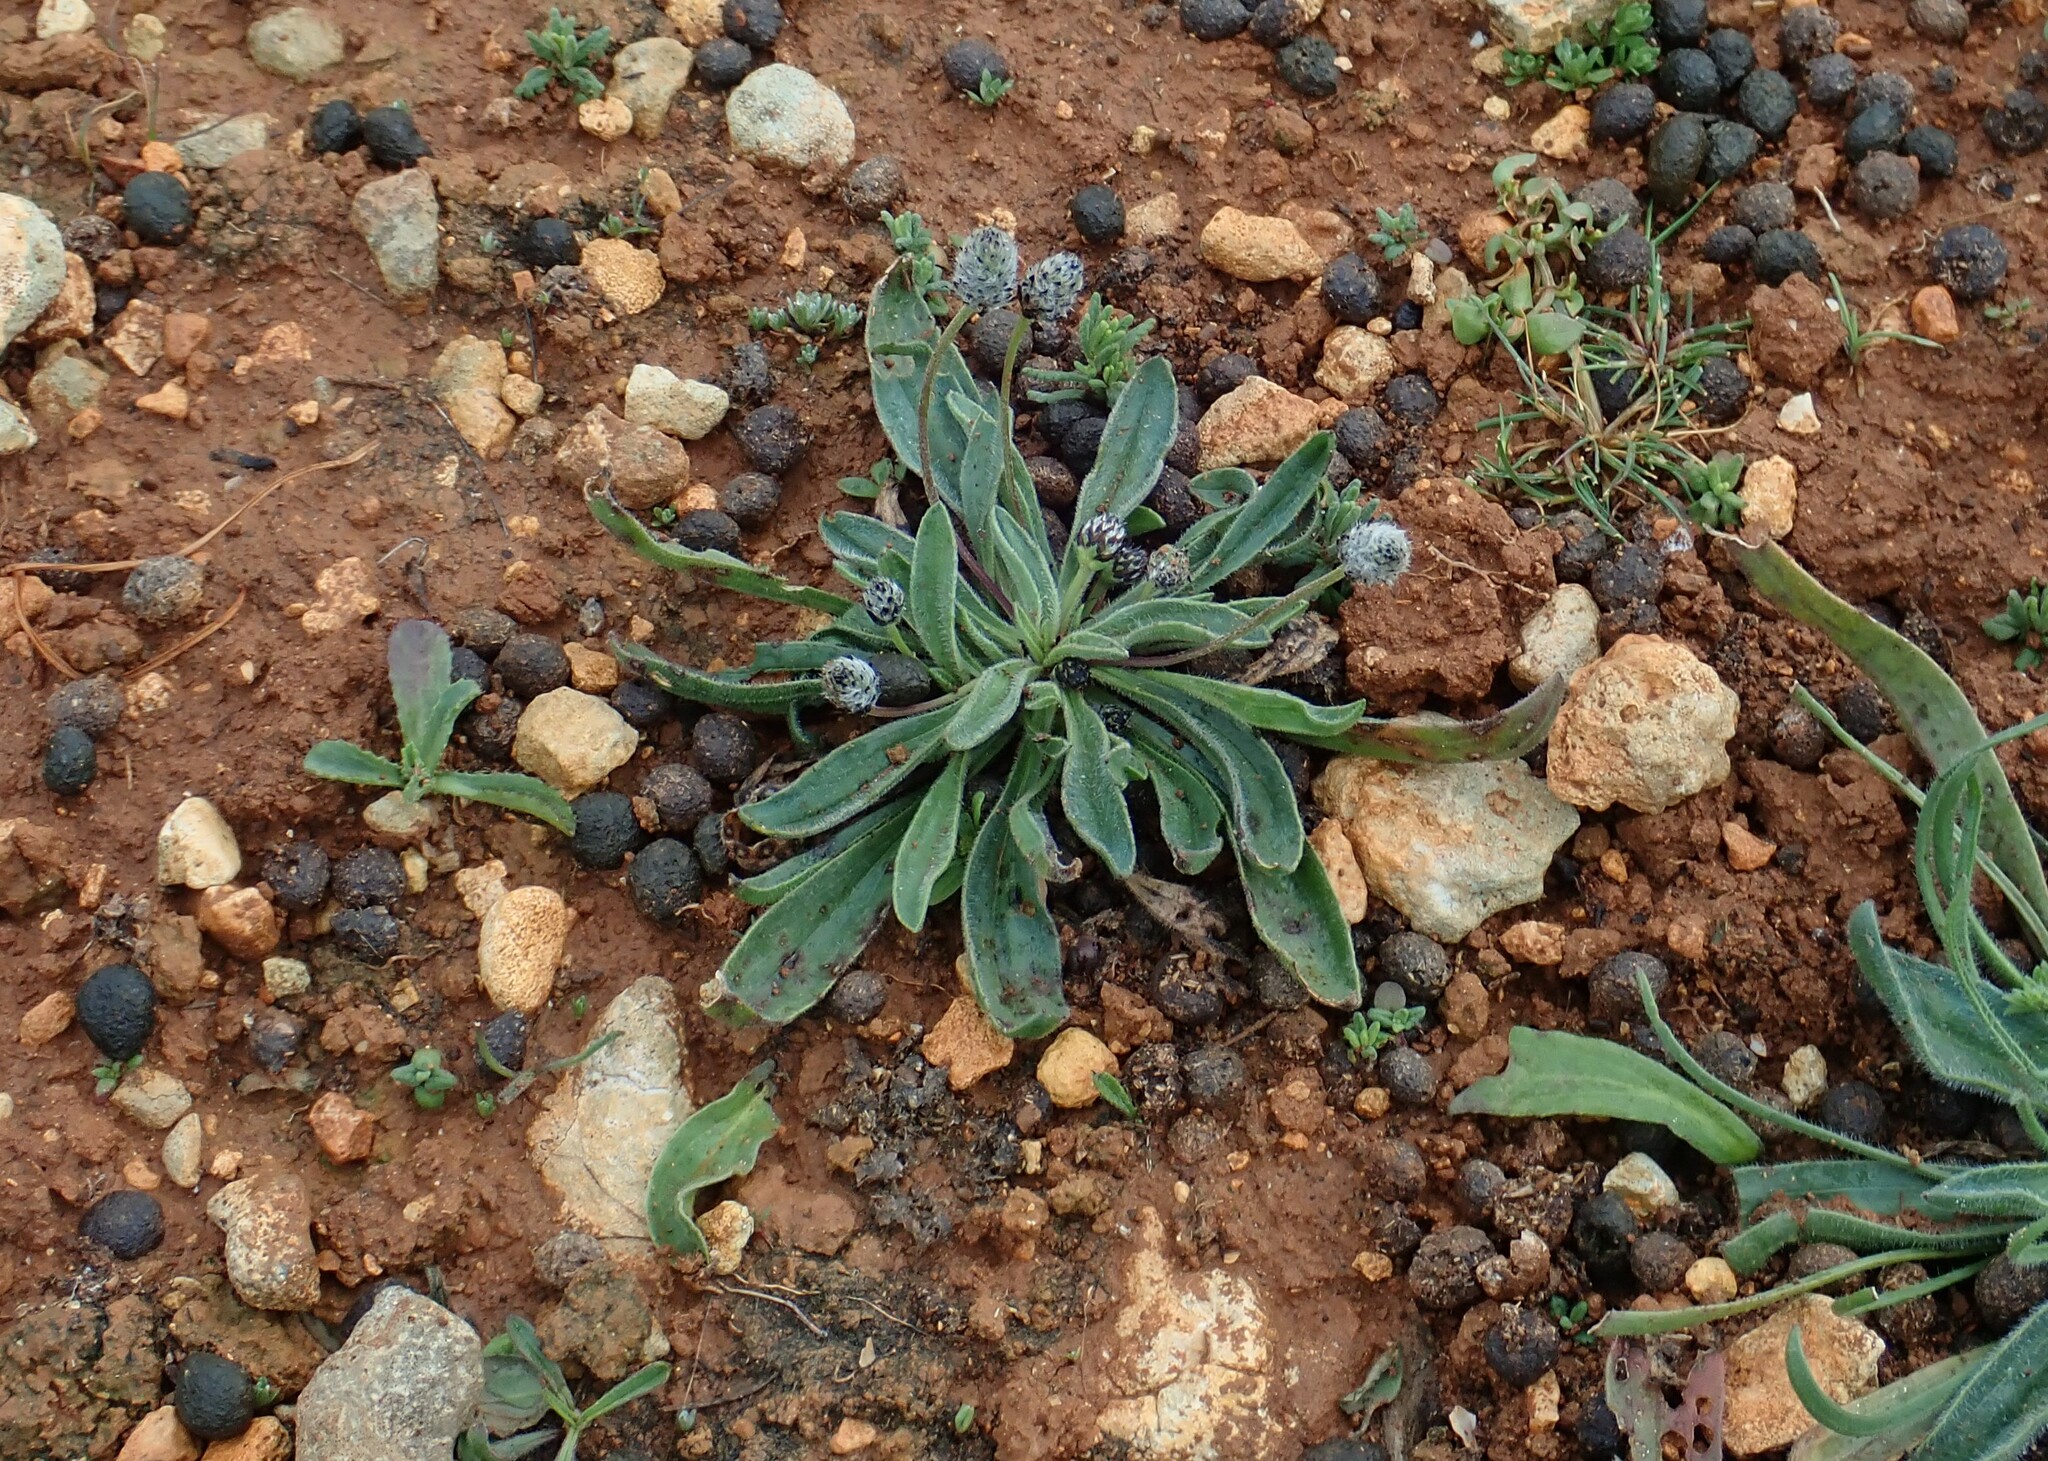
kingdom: Plantae
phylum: Tracheophyta
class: Magnoliopsida
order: Lamiales
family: Plantaginaceae
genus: Plantago
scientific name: Plantago lagopus
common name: Hare-foot plantain
